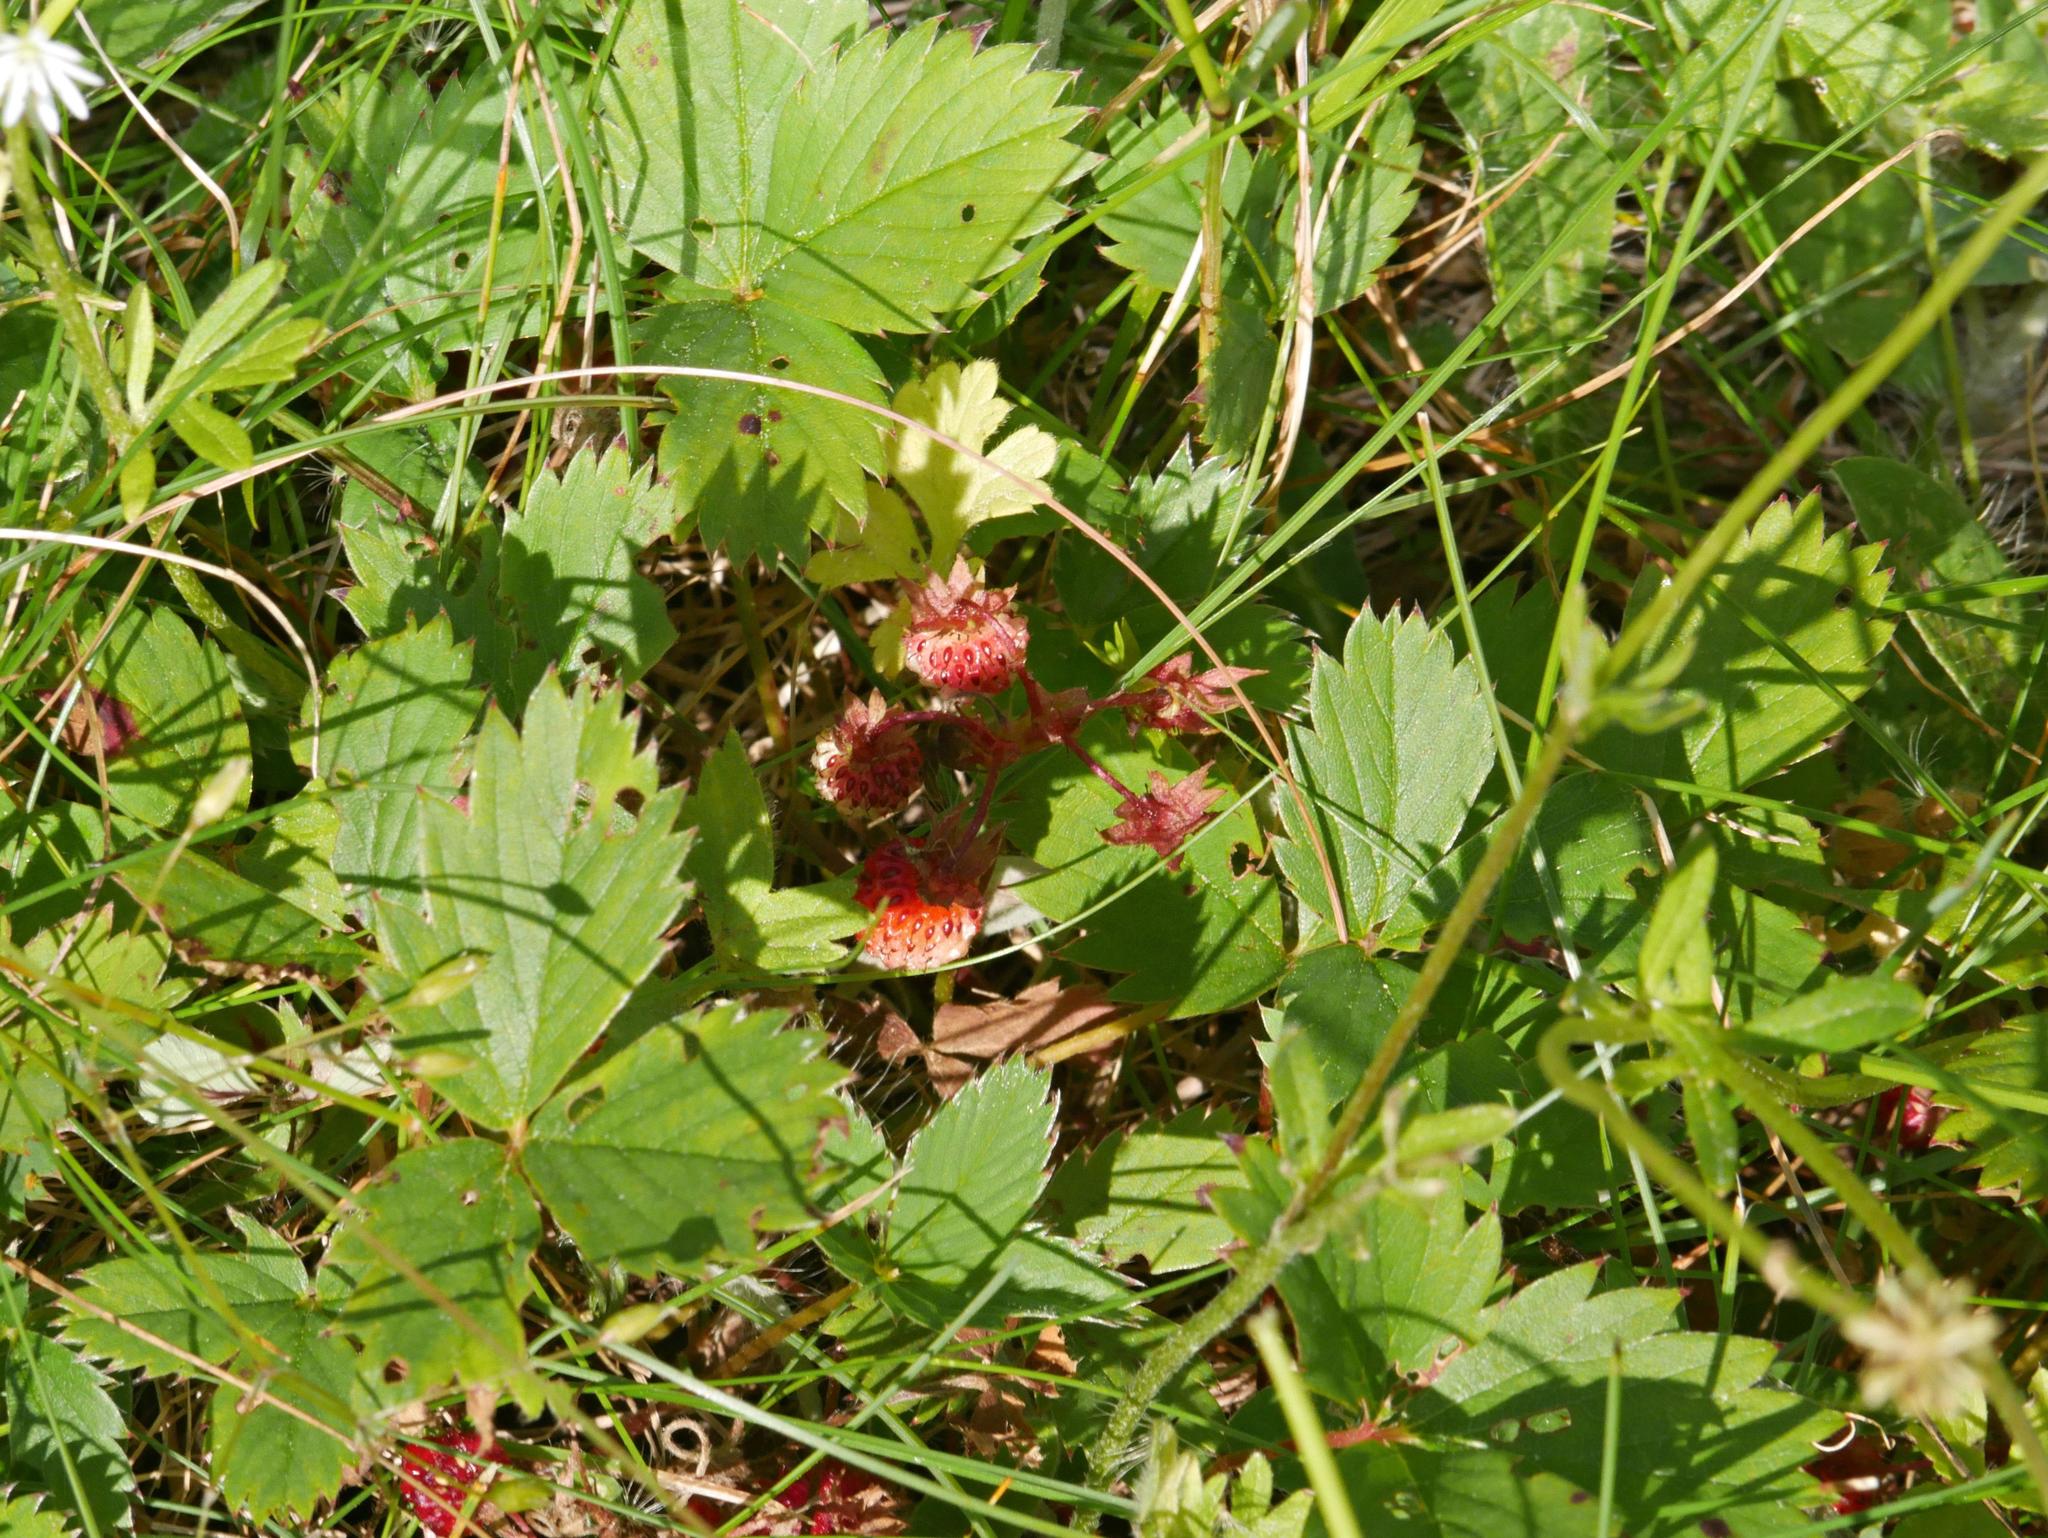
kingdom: Plantae
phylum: Tracheophyta
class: Magnoliopsida
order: Rosales
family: Rosaceae
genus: Fragaria
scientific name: Fragaria virginiana
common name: Thickleaved wild strawberry
